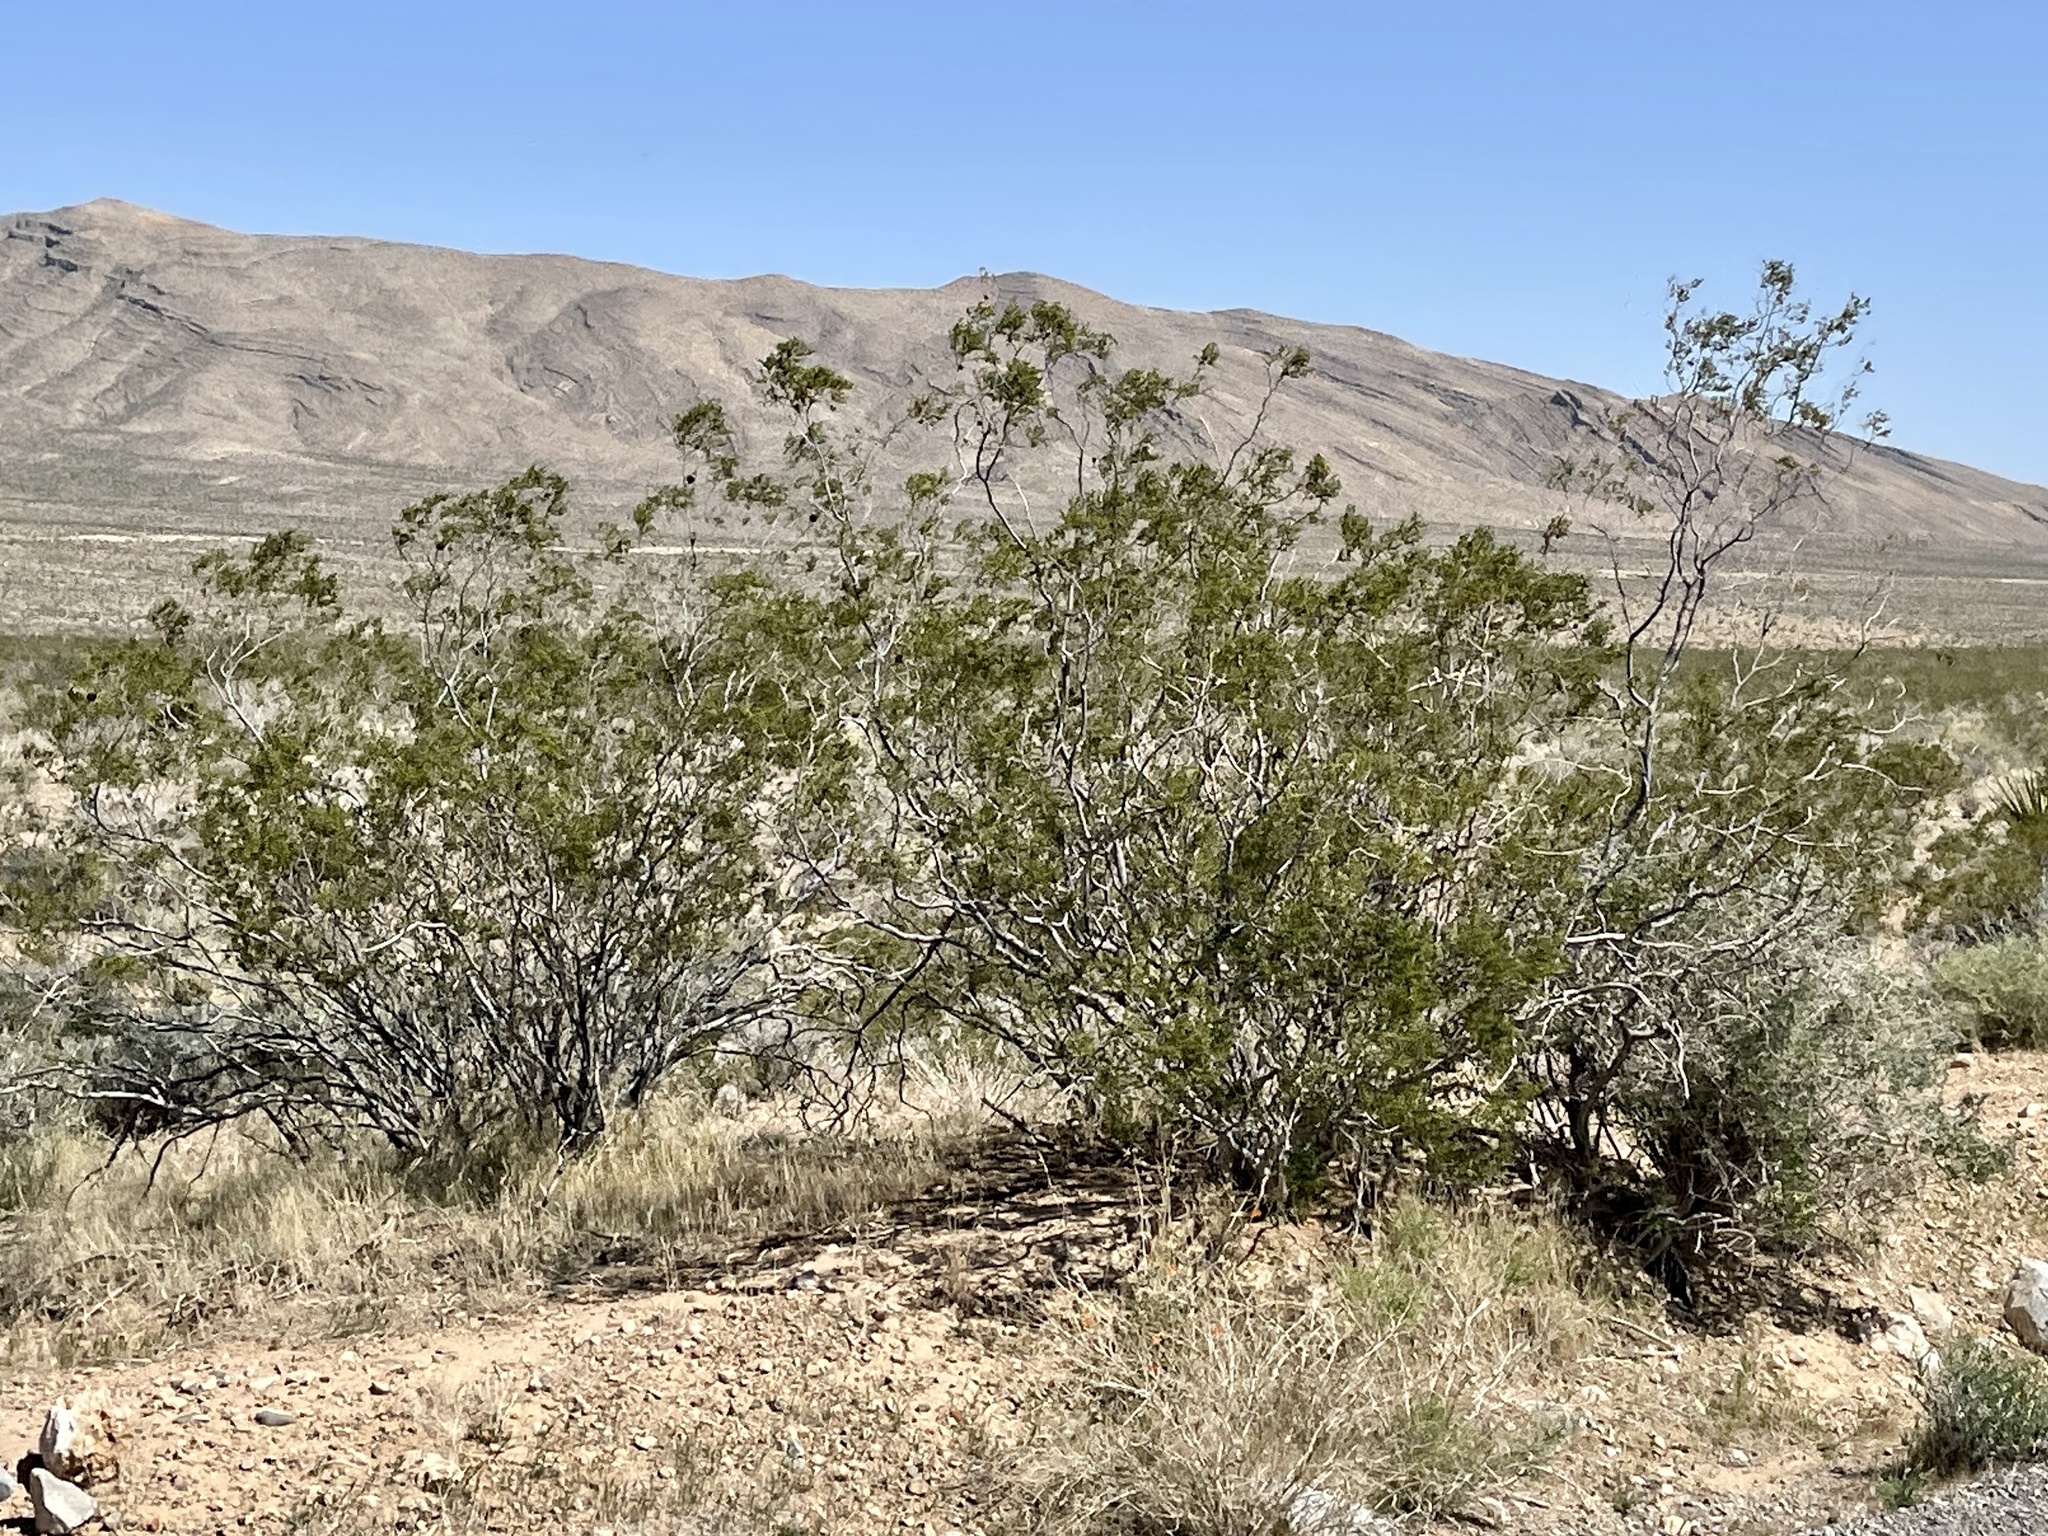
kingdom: Plantae
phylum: Tracheophyta
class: Magnoliopsida
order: Zygophyllales
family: Zygophyllaceae
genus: Larrea
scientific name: Larrea tridentata
